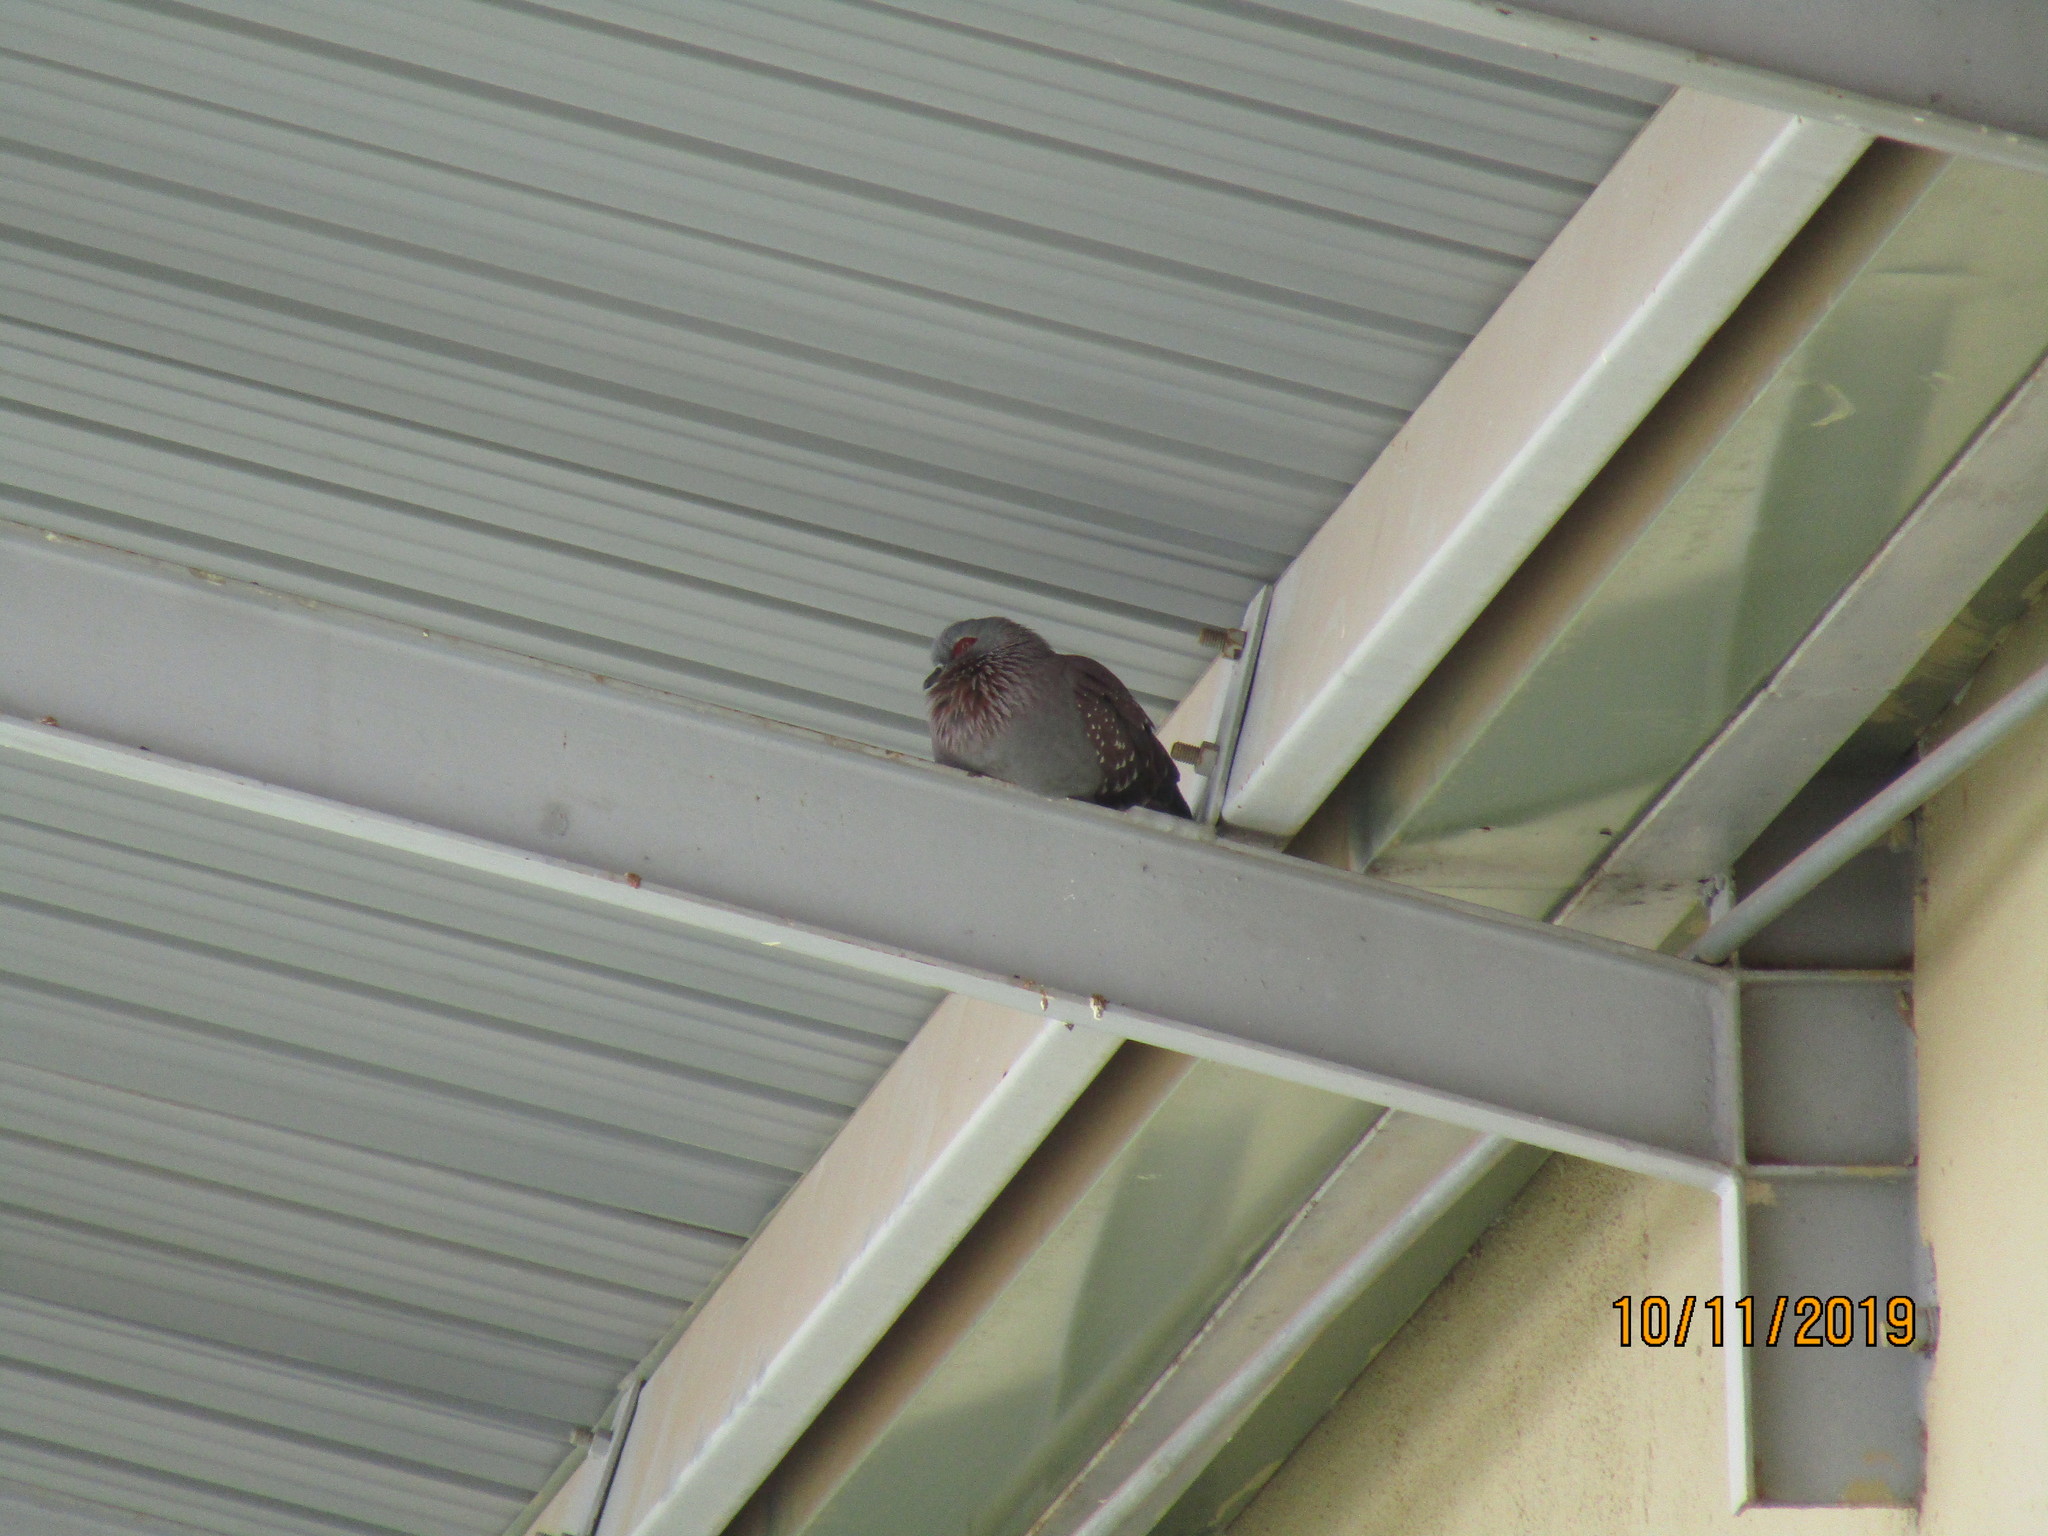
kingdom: Animalia
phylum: Chordata
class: Aves
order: Columbiformes
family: Columbidae
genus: Columba
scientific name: Columba guinea
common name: Speckled pigeon
